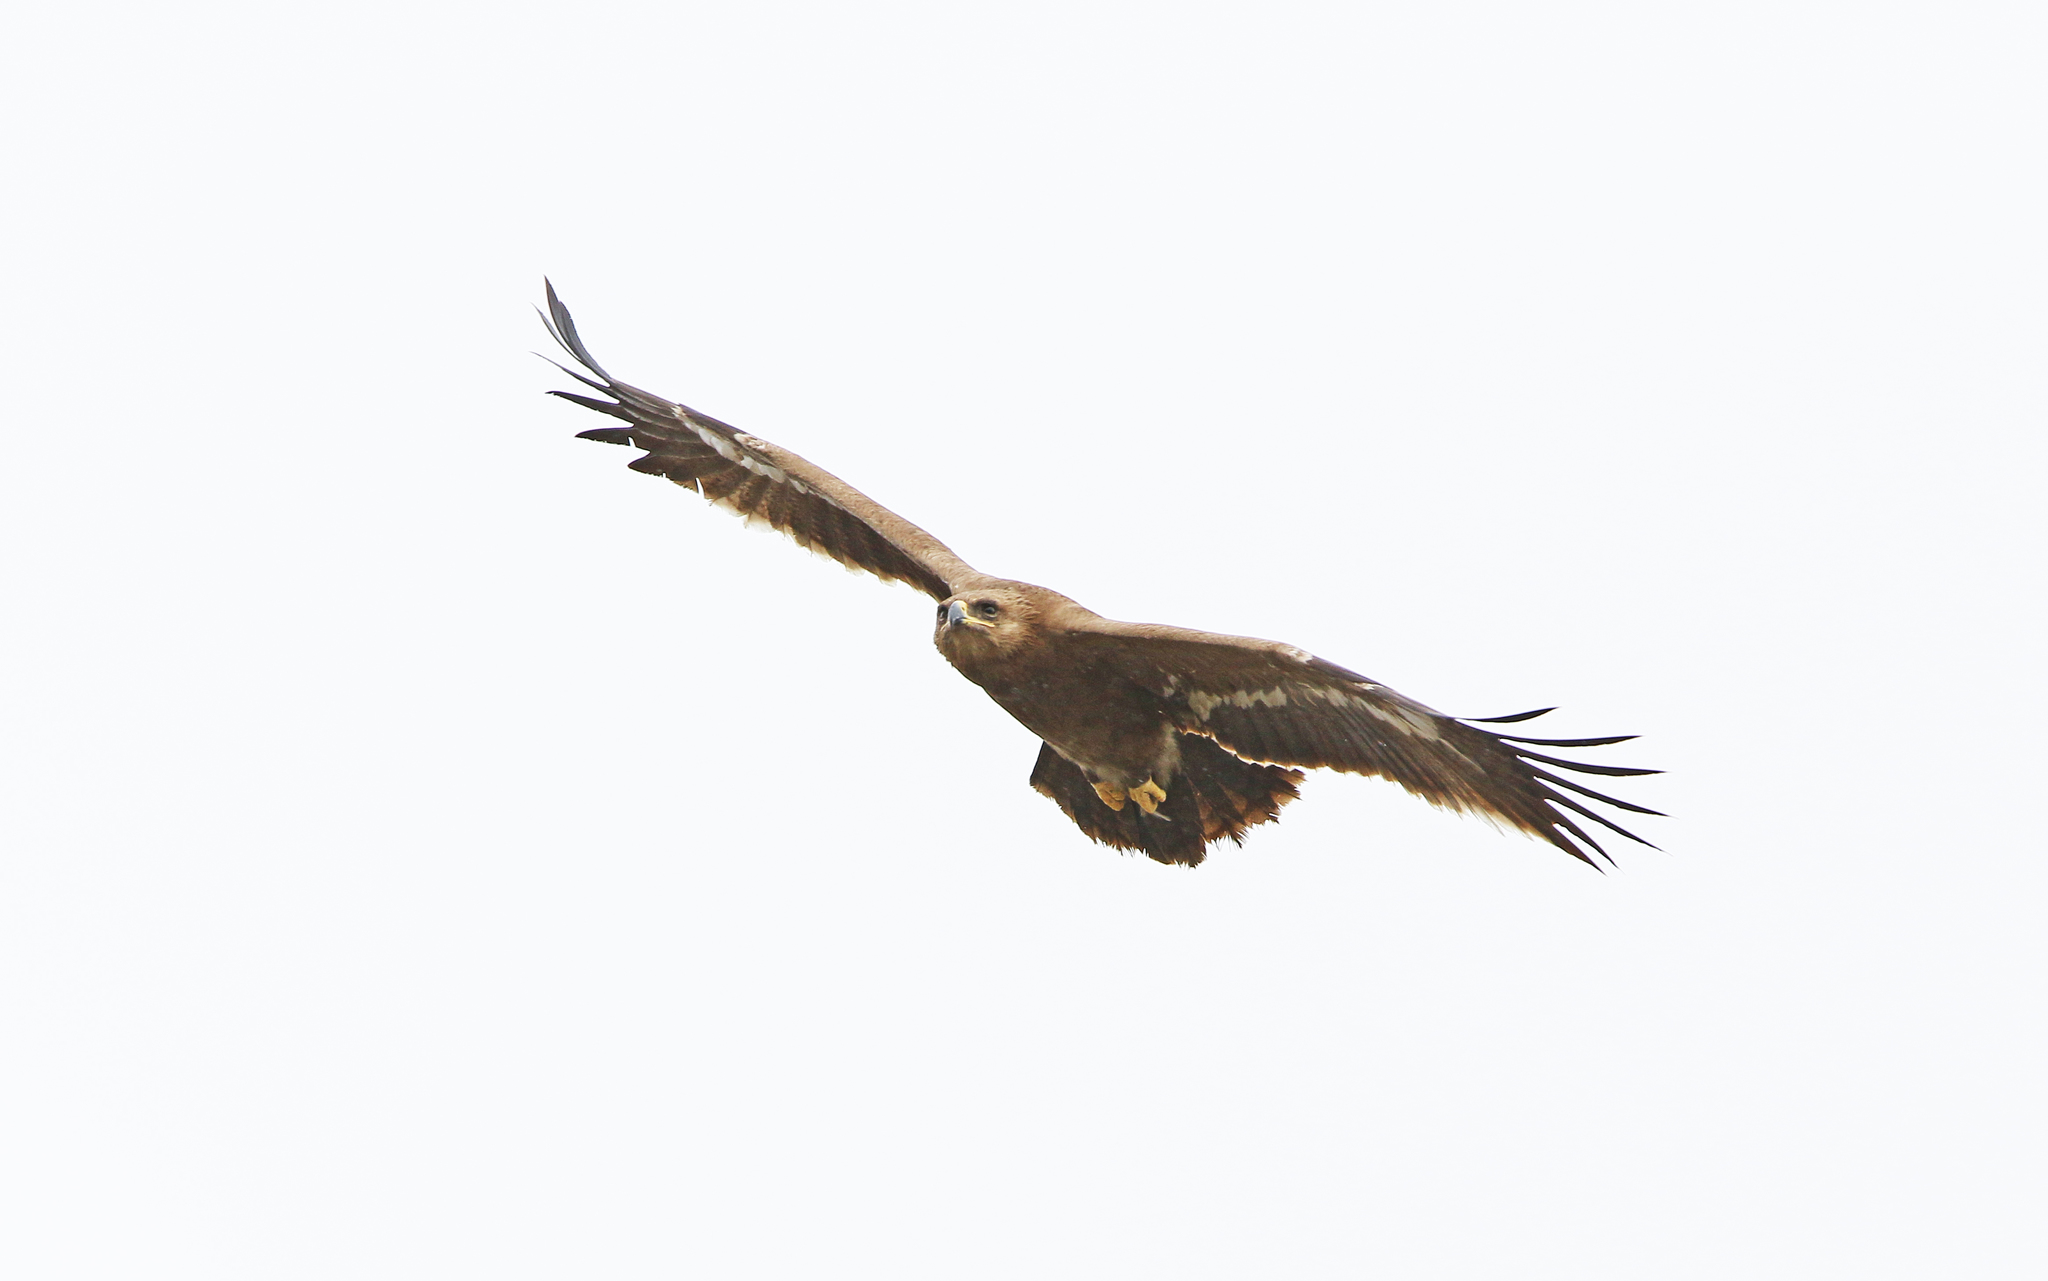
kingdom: Animalia
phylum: Chordata
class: Aves
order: Accipitriformes
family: Accipitridae
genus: Aquila
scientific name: Aquila nipalensis
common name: Steppe eagle
